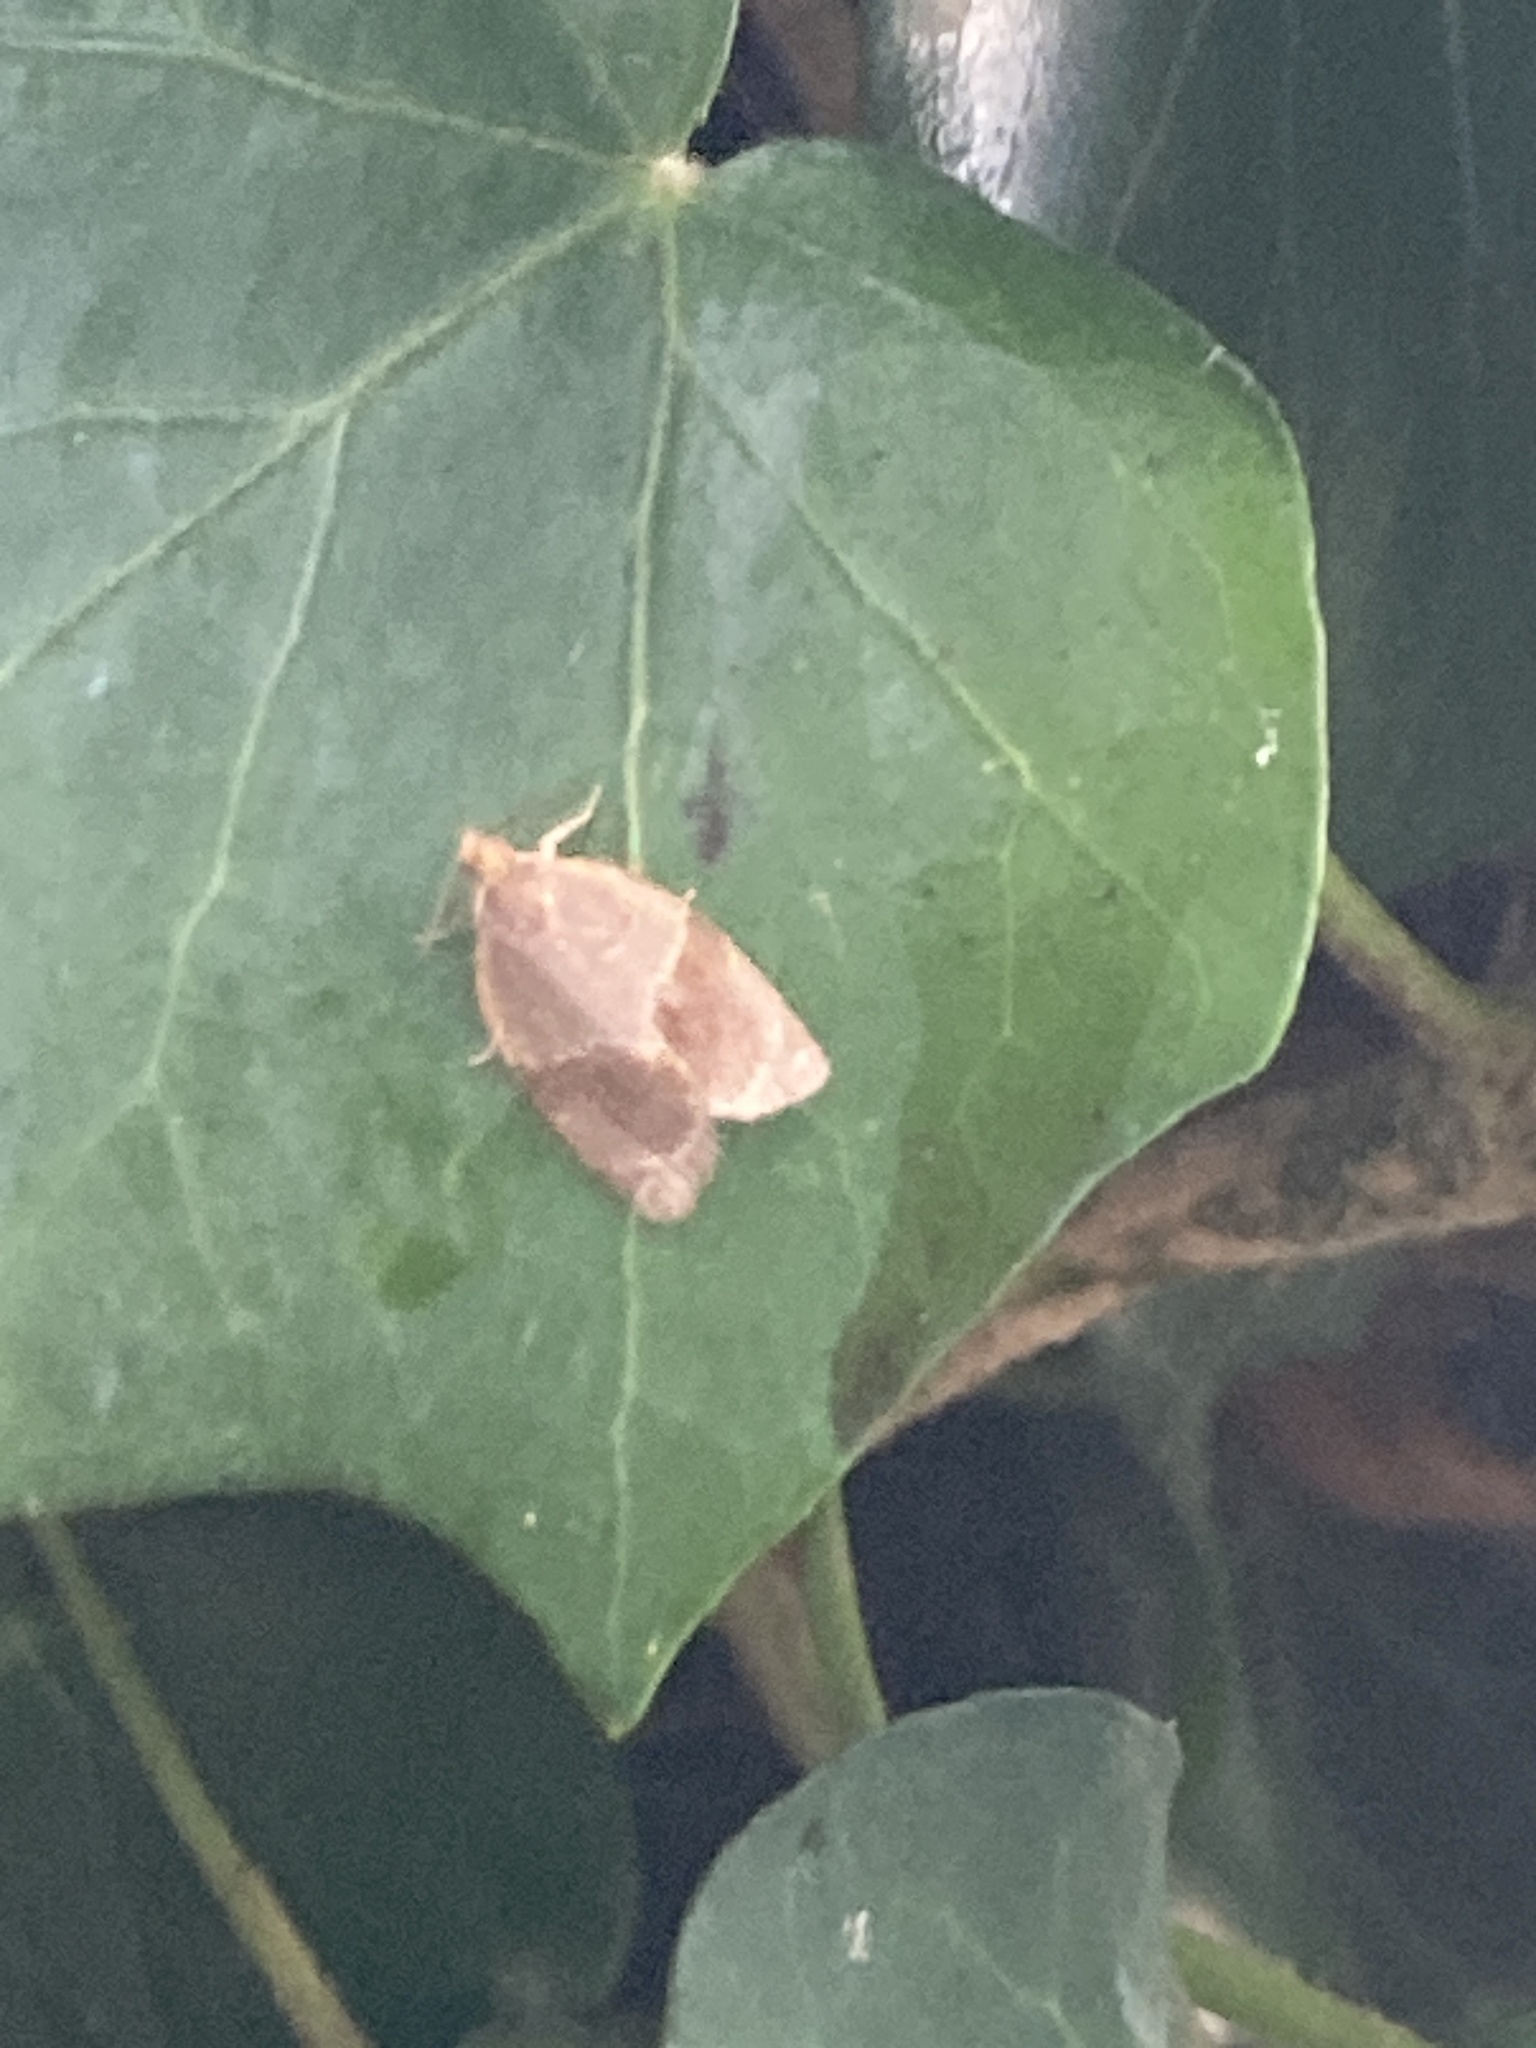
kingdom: Animalia
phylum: Arthropoda
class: Insecta
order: Lepidoptera
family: Tortricidae
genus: Clepsis
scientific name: Clepsis dumicolana
